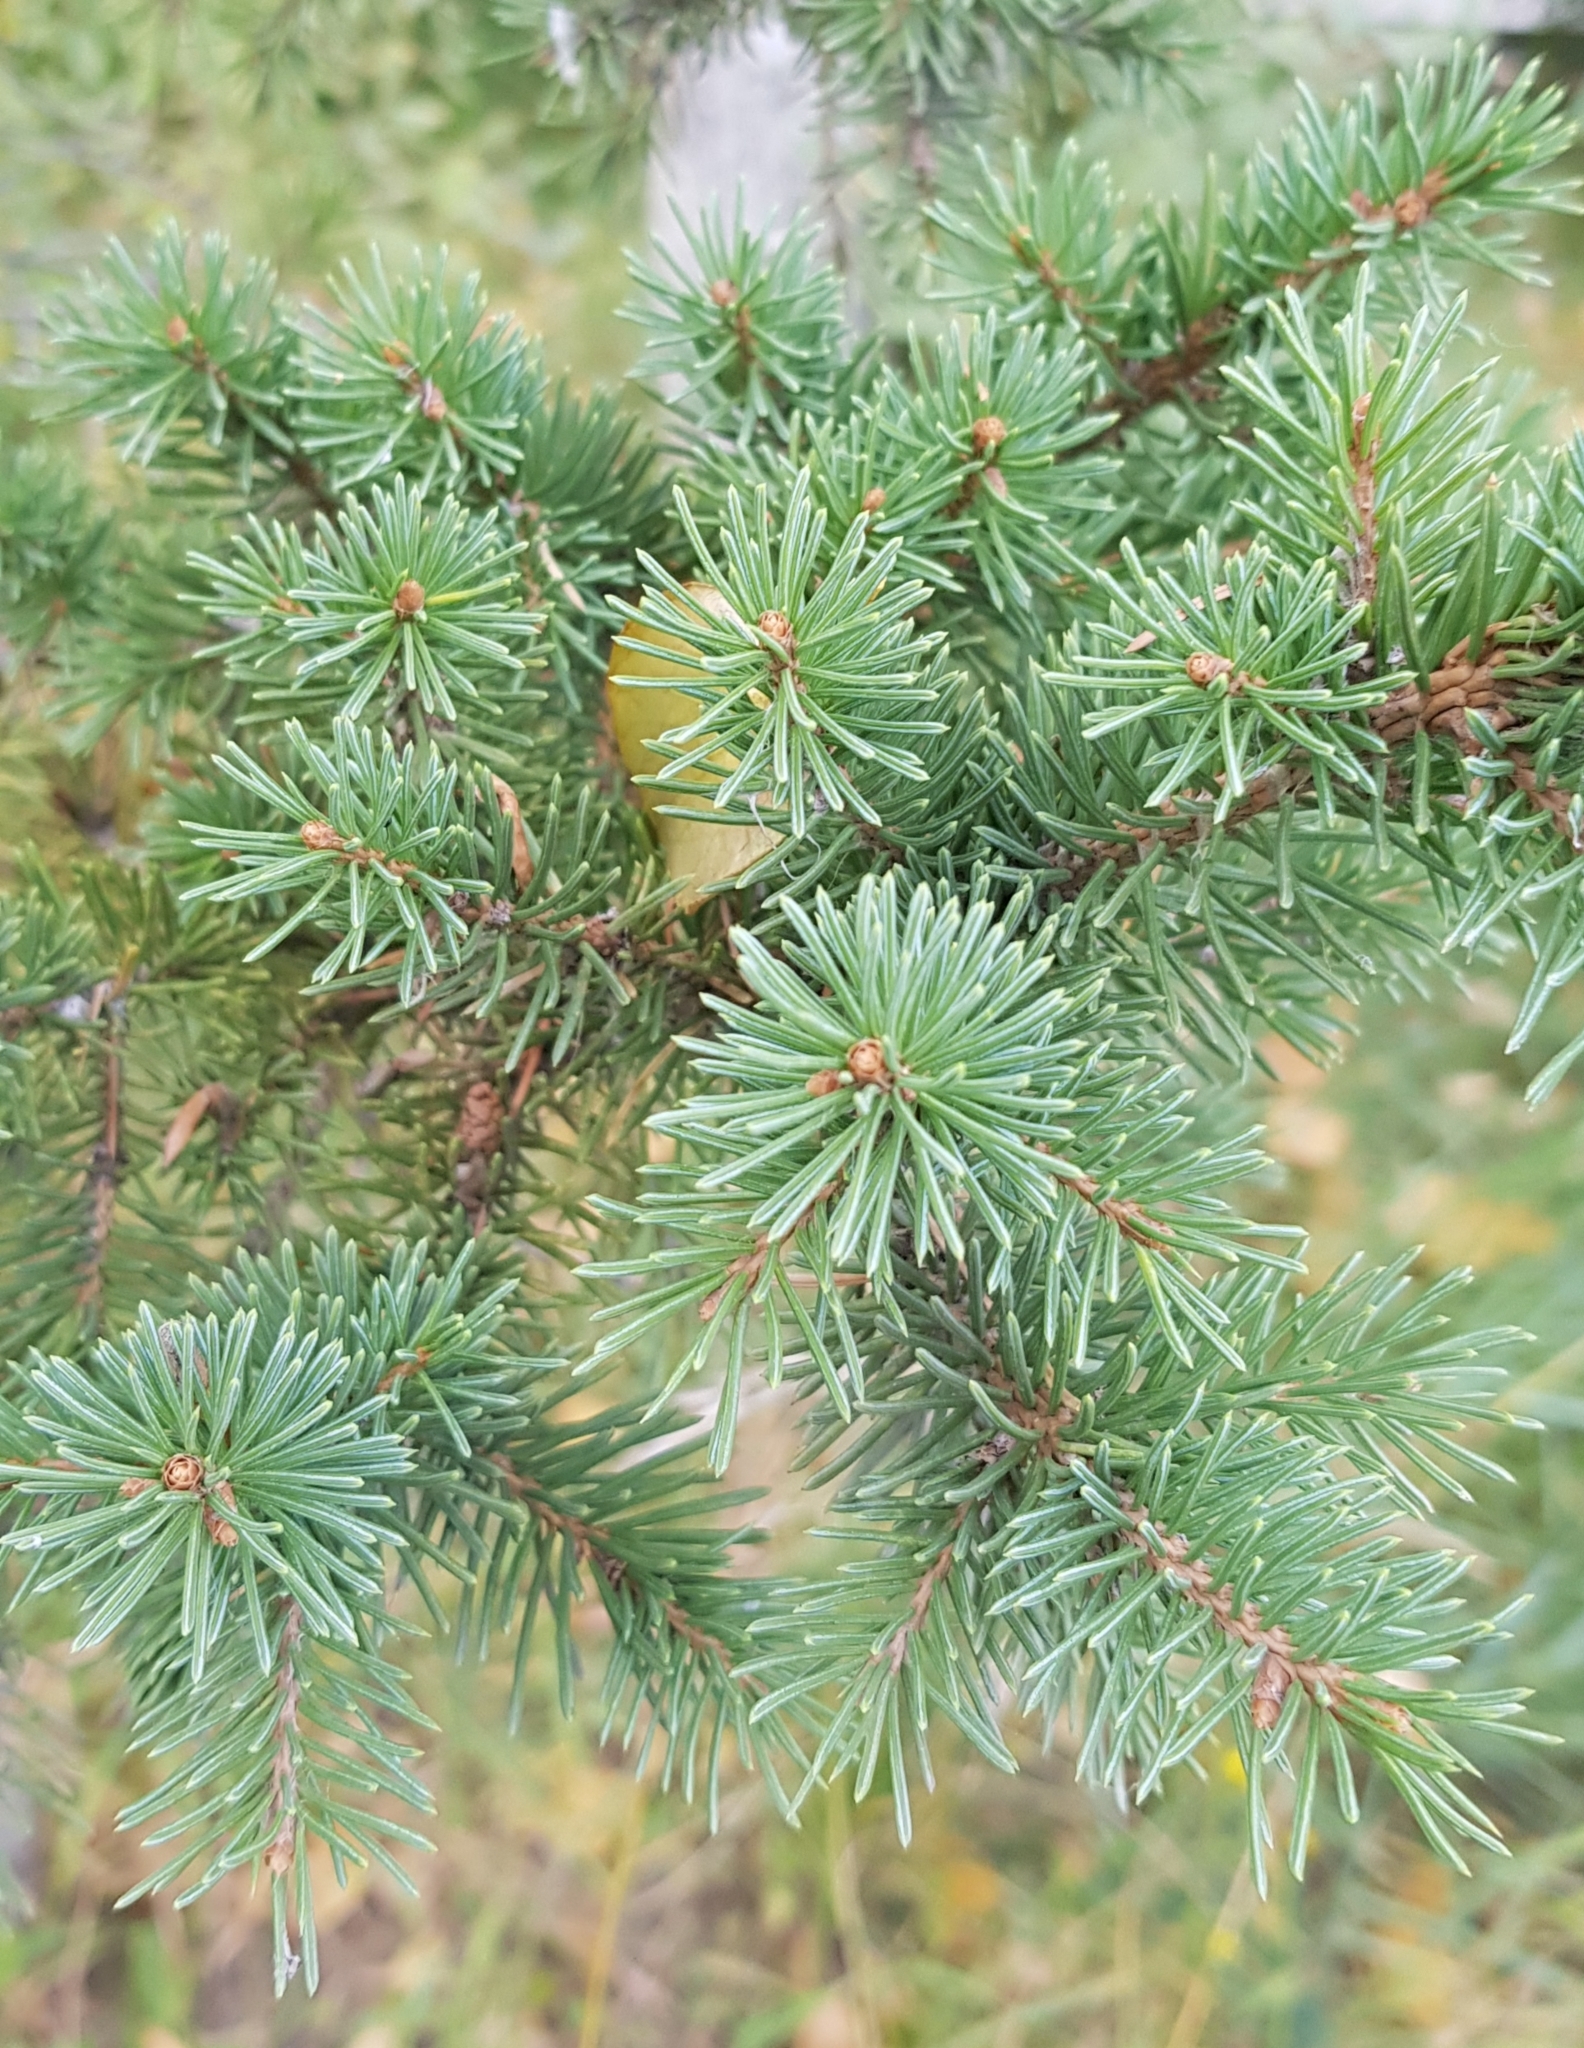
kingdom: Plantae
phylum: Tracheophyta
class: Pinopsida
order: Pinales
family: Pinaceae
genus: Picea
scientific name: Picea obovata
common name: Siberian spruce
